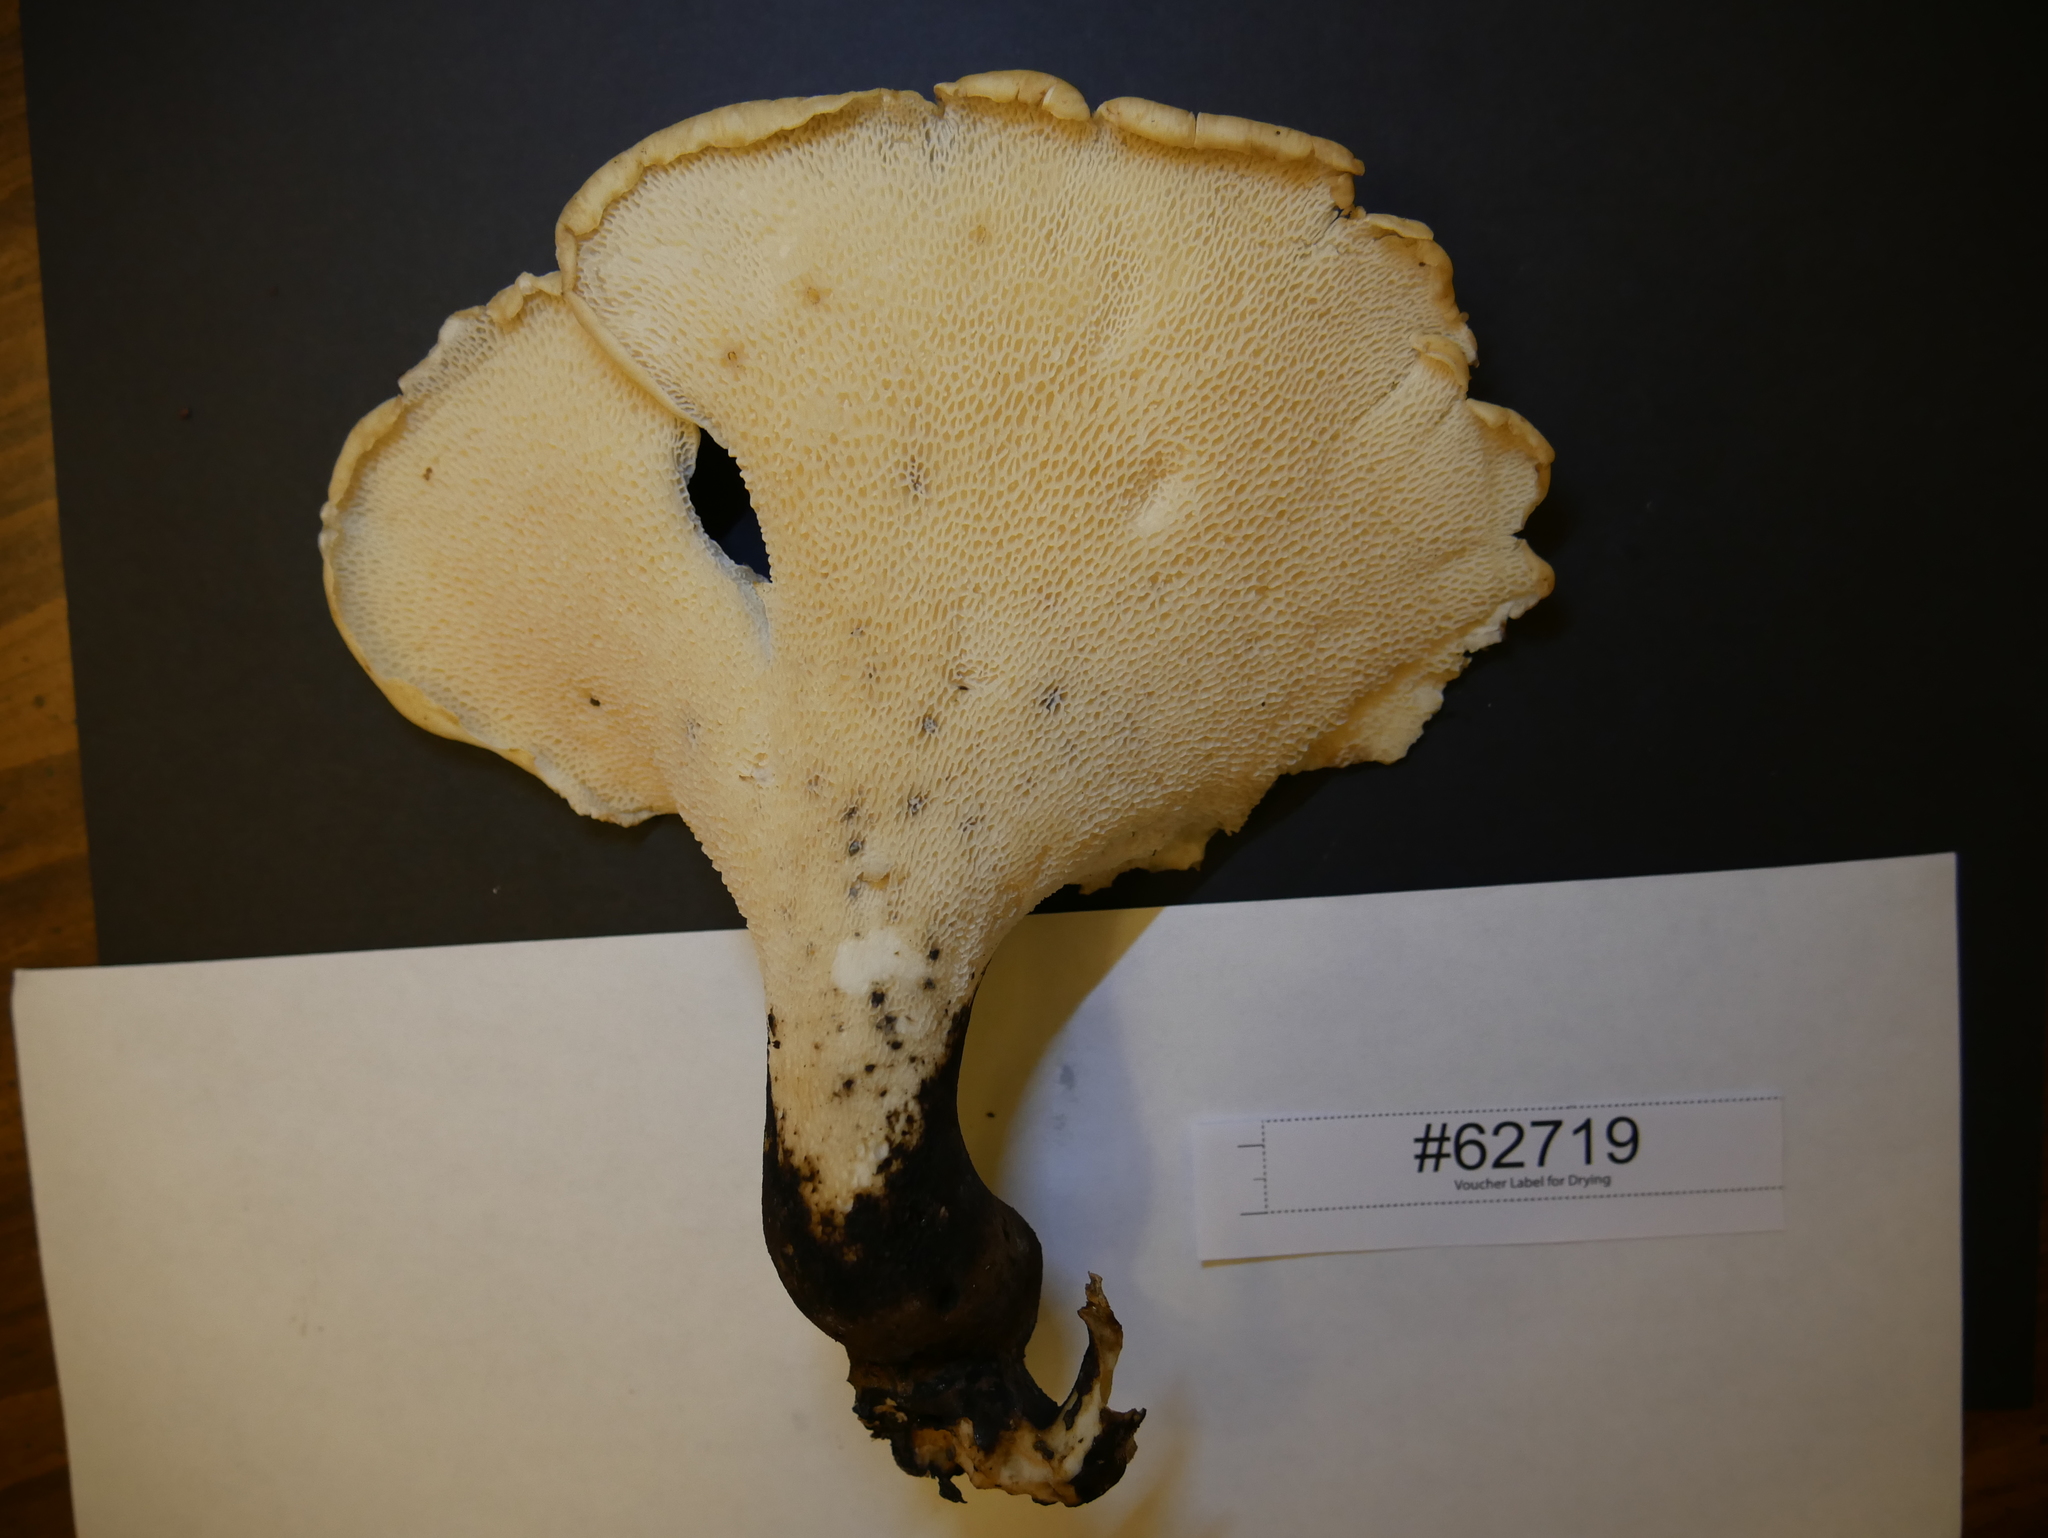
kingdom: Fungi
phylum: Basidiomycota
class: Agaricomycetes
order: Polyporales
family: Polyporaceae
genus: Cerioporus
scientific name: Cerioporus squamosus
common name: Dryad's saddle
